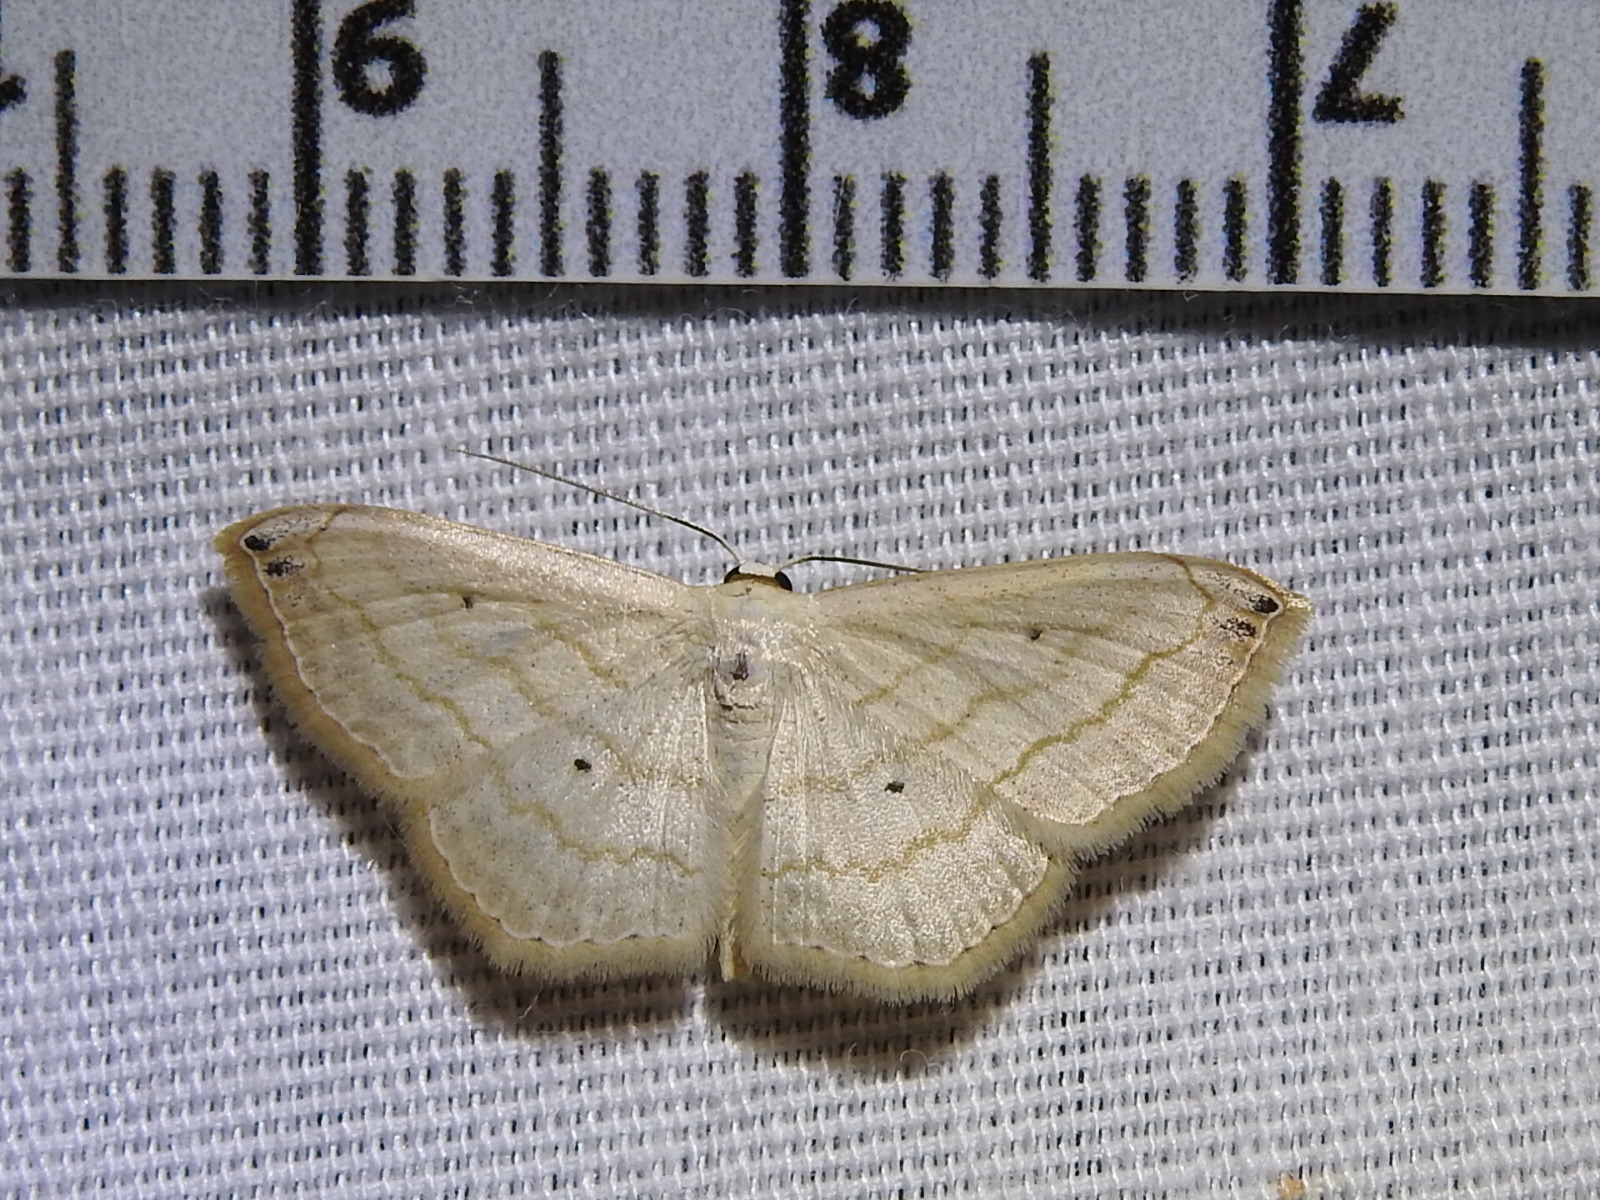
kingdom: Animalia
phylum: Arthropoda
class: Insecta
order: Lepidoptera
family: Geometridae
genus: Scopula
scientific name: Scopula umbilicata
